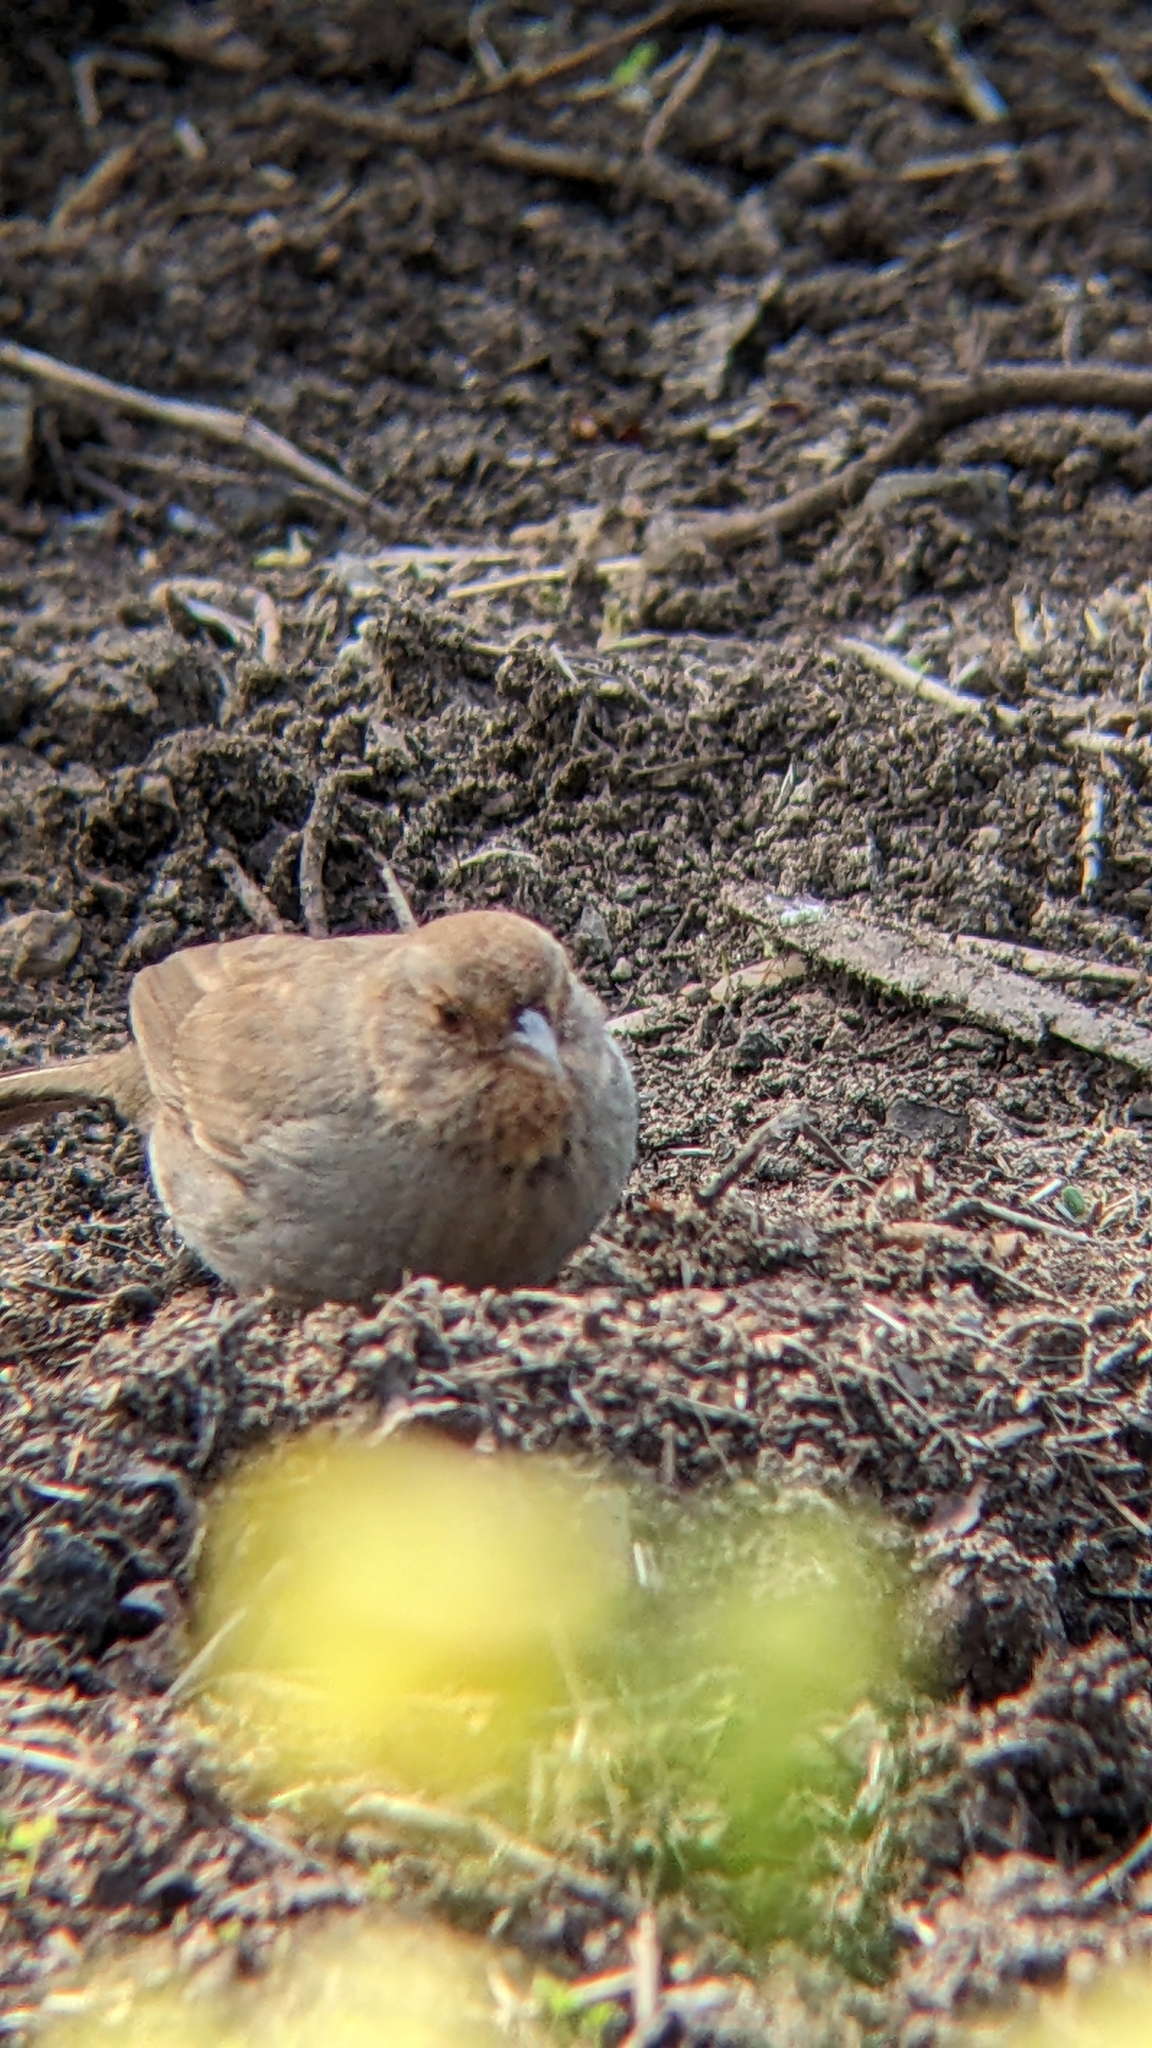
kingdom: Animalia
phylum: Chordata
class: Aves
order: Passeriformes
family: Passerellidae
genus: Melozone
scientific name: Melozone crissalis
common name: California towhee
